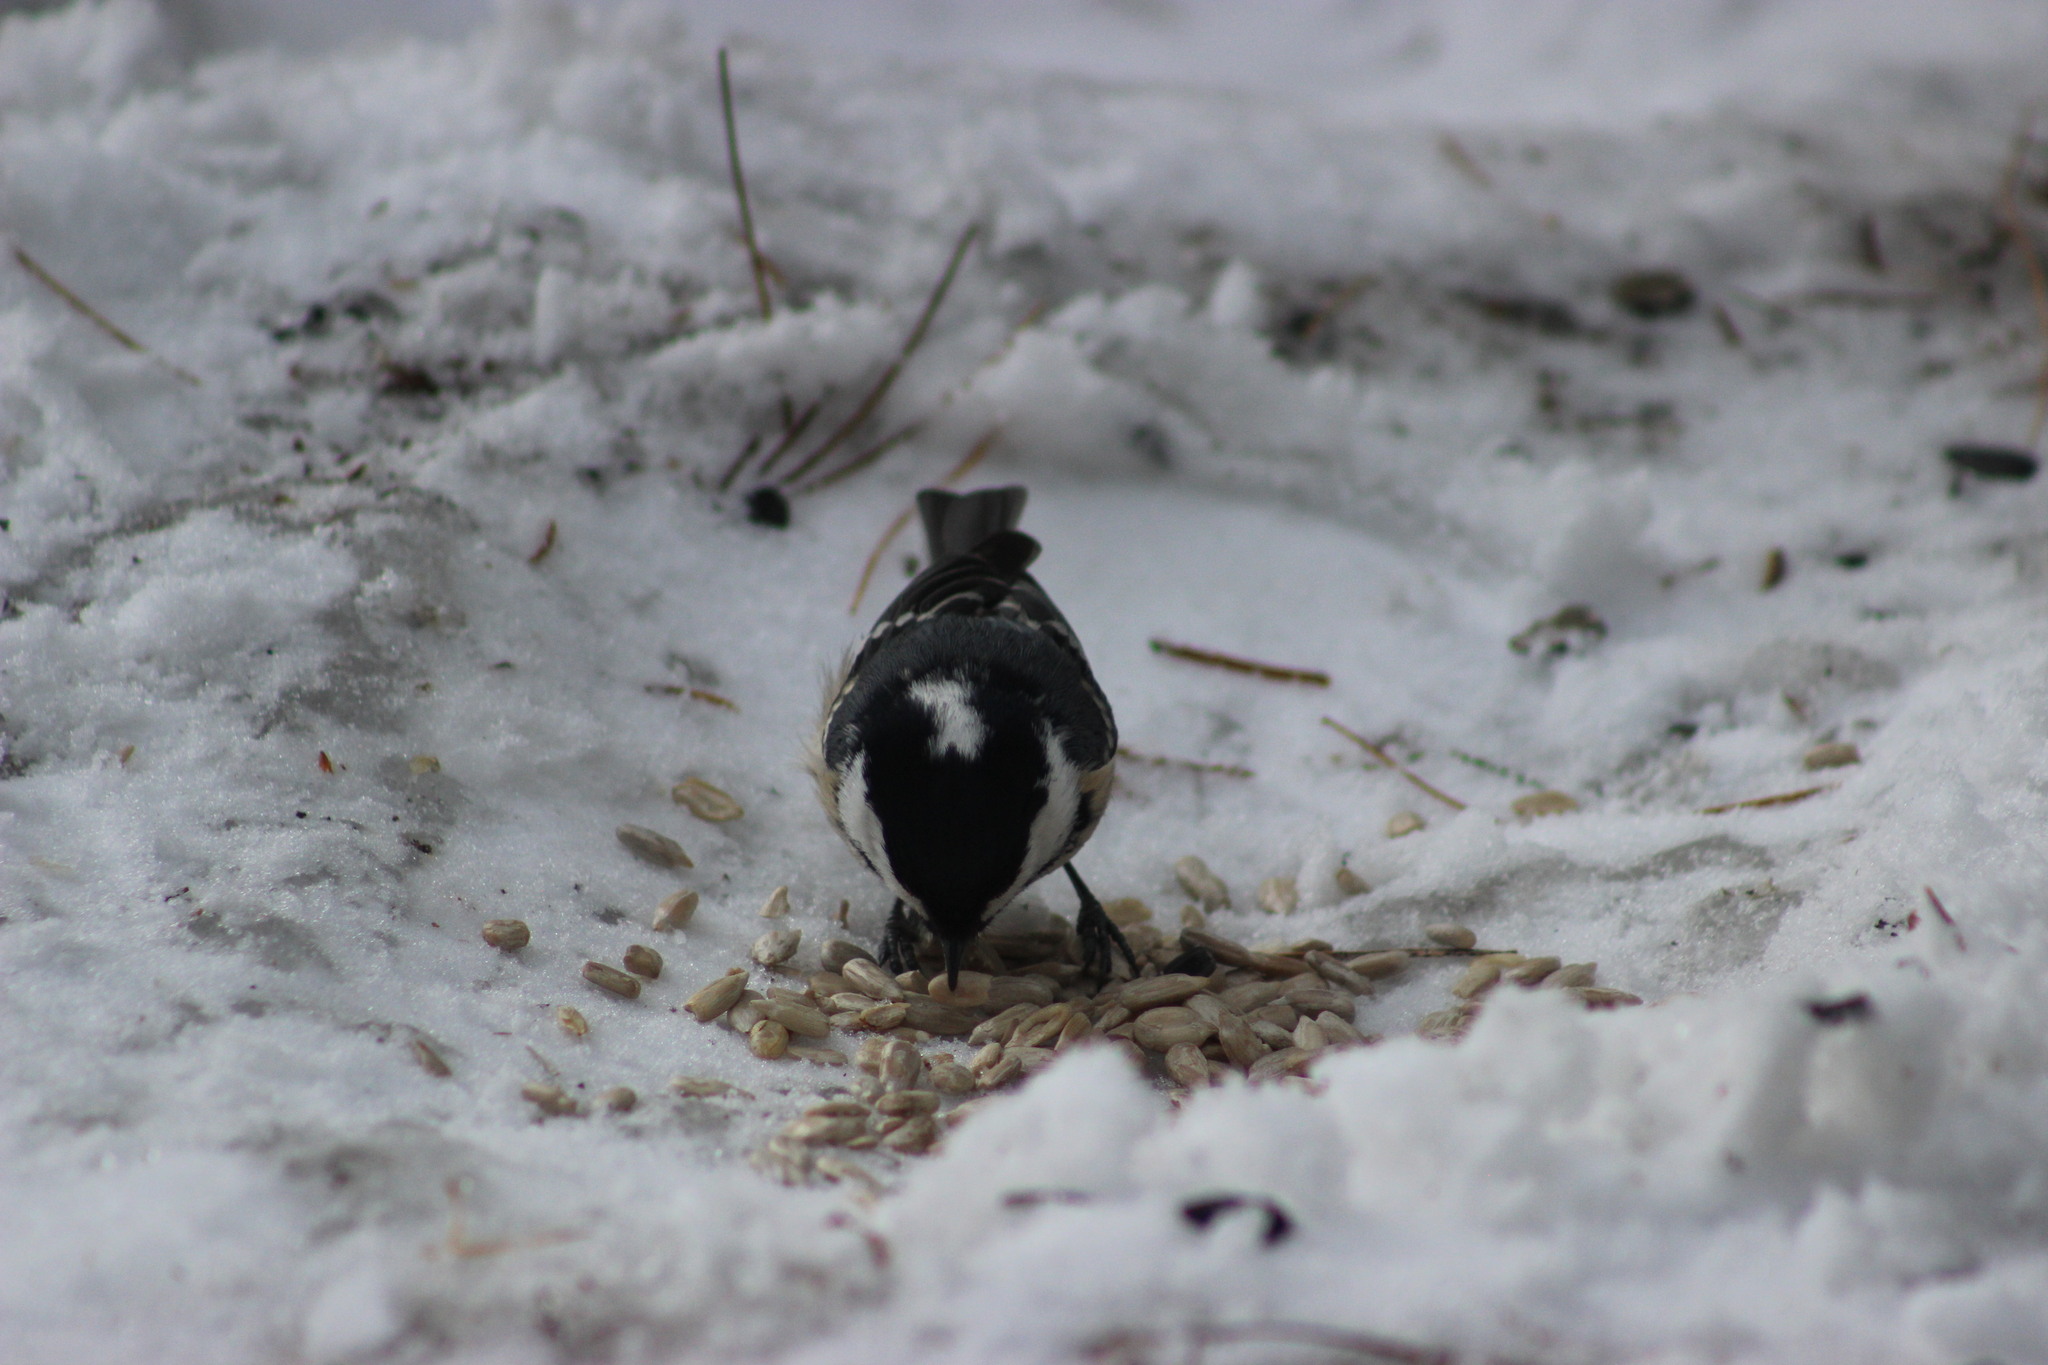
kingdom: Animalia
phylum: Chordata
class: Aves
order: Passeriformes
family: Paridae
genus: Periparus
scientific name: Periparus ater
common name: Coal tit
